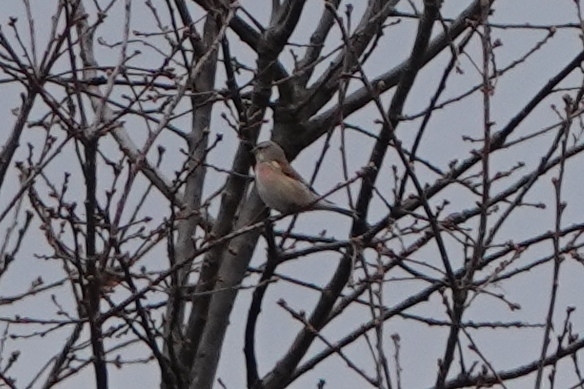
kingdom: Animalia
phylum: Chordata
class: Aves
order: Passeriformes
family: Fringillidae
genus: Linaria
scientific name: Linaria cannabina
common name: Common linnet
